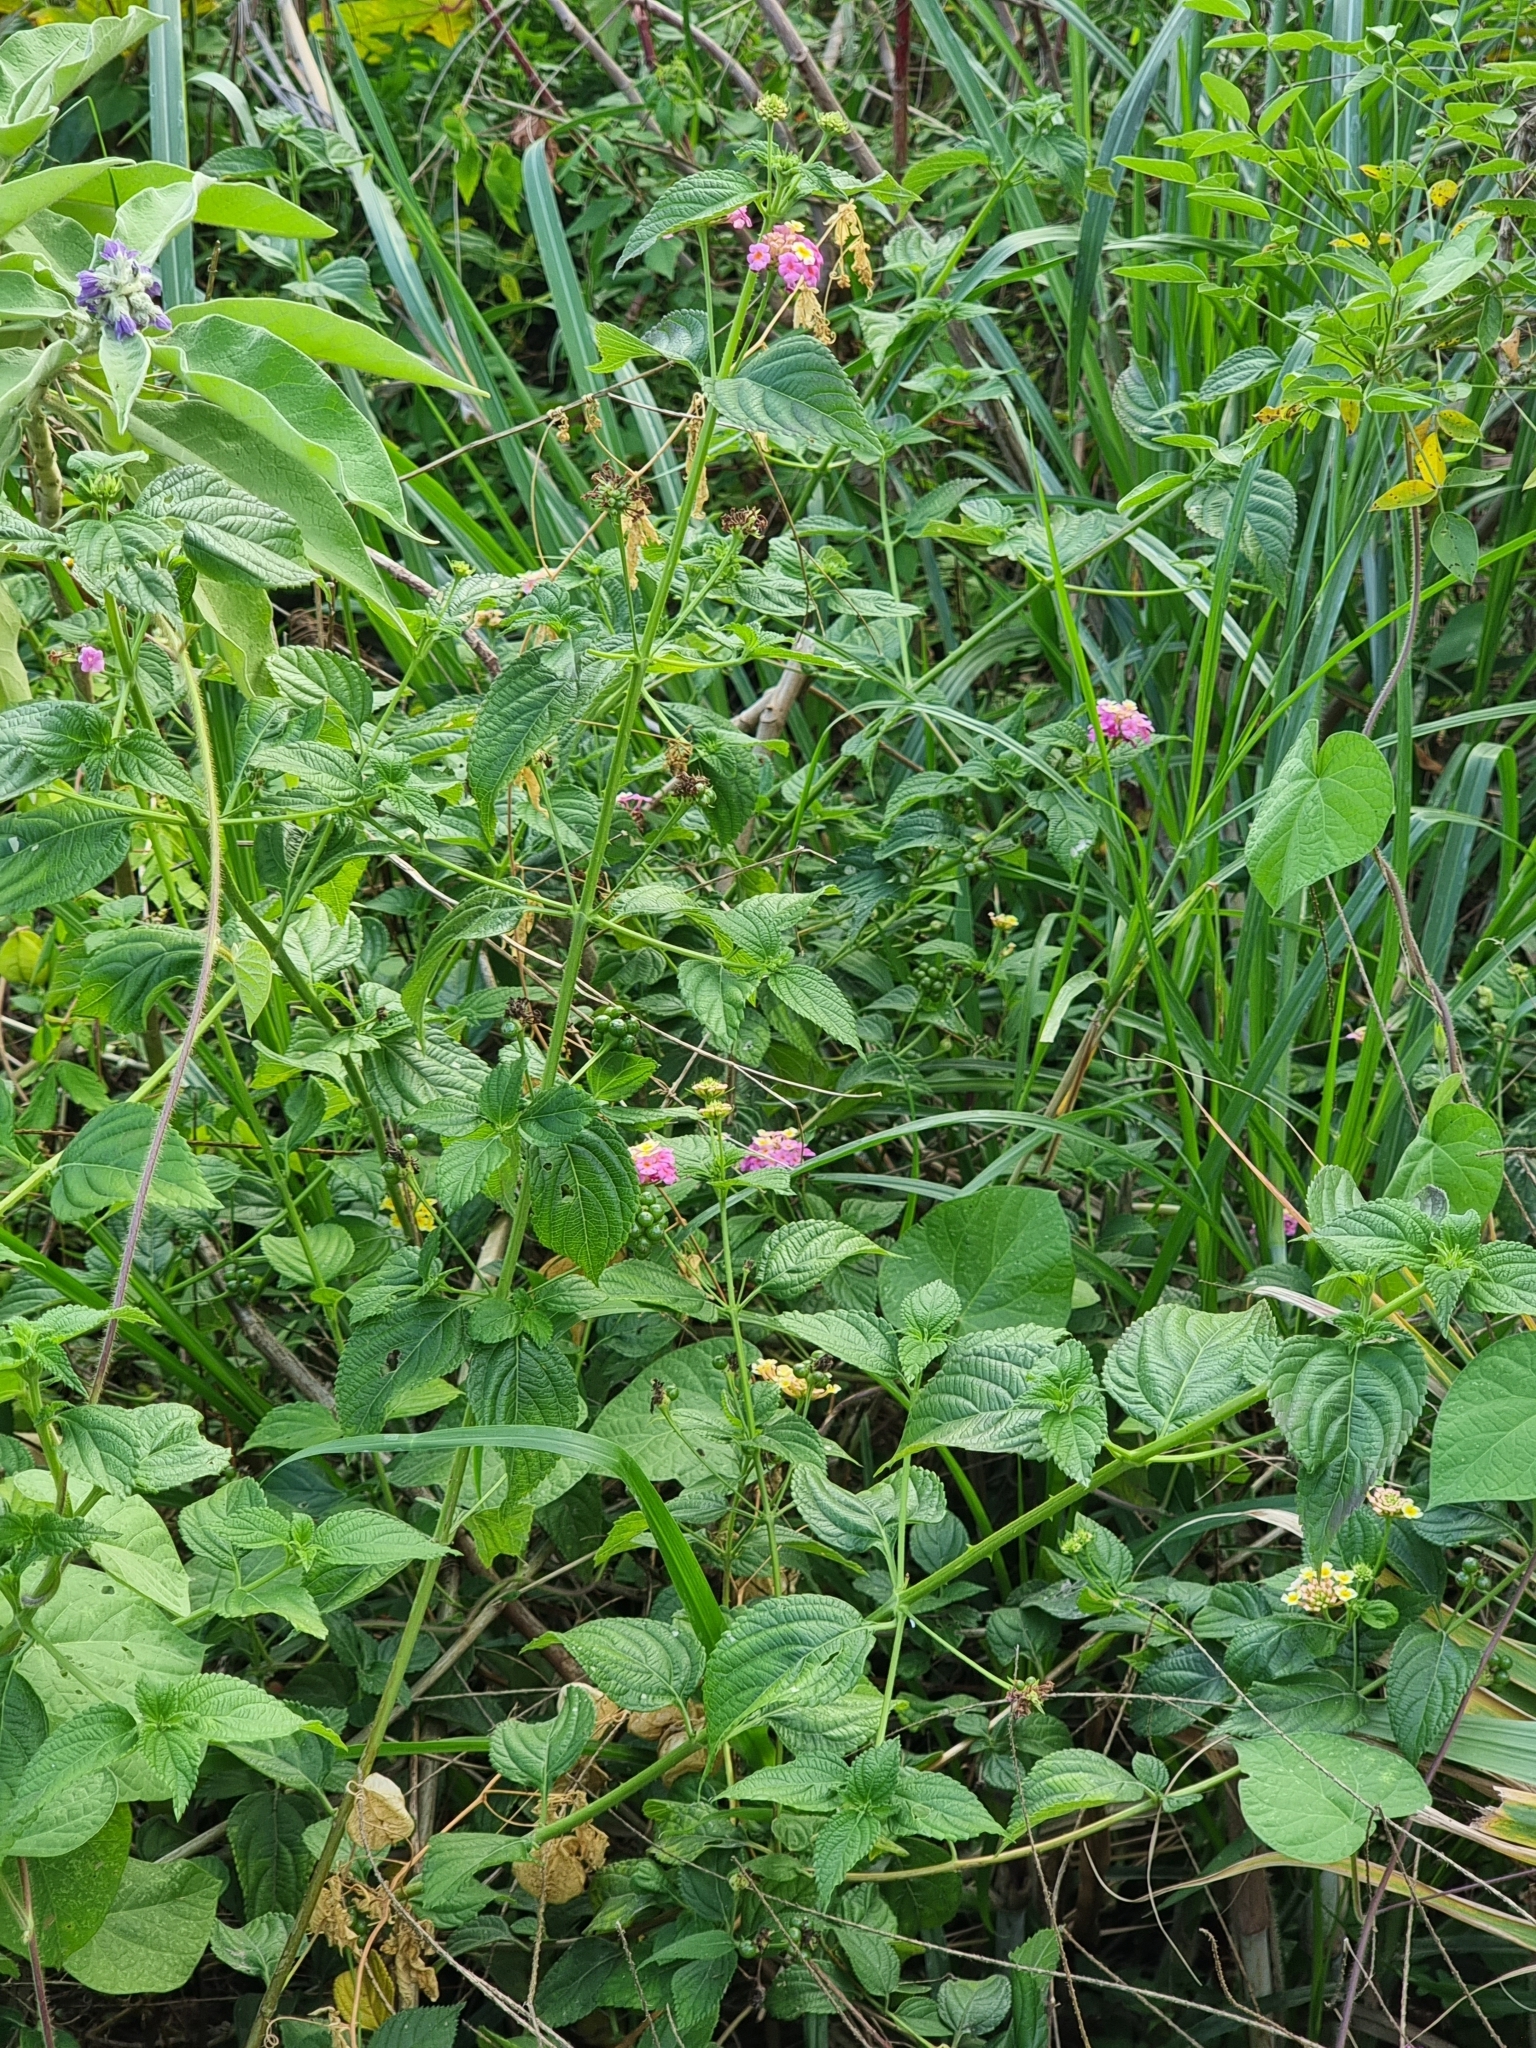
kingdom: Plantae
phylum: Tracheophyta
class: Magnoliopsida
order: Lamiales
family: Verbenaceae
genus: Lantana
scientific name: Lantana camara
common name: Lantana
